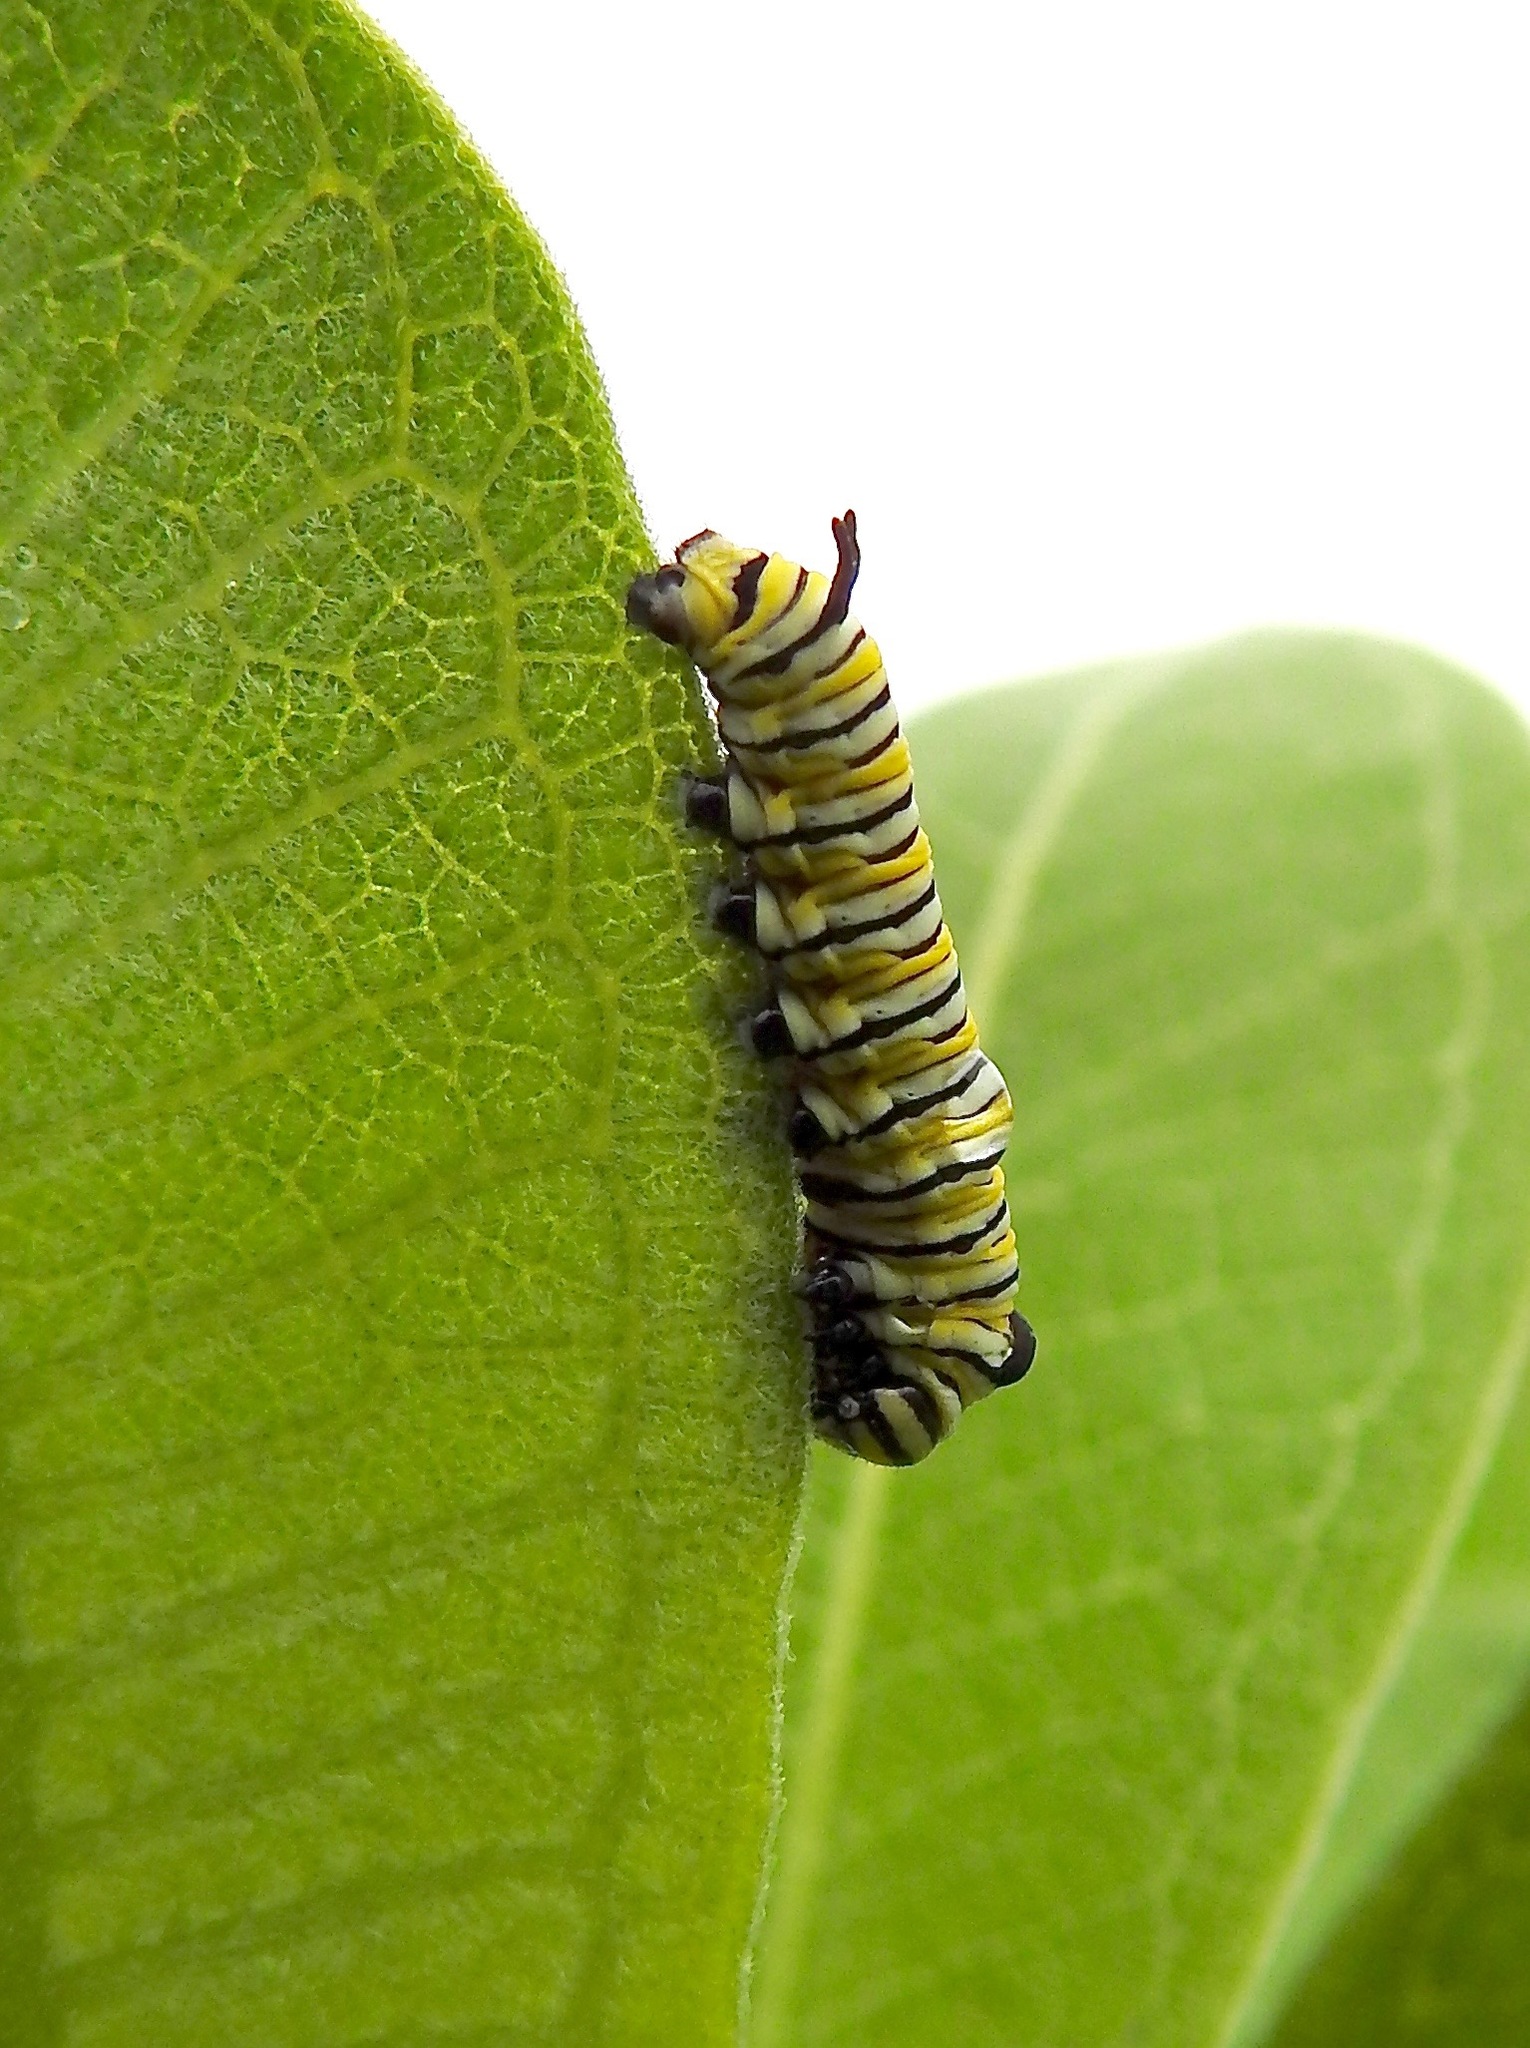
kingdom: Animalia
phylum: Arthropoda
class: Insecta
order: Lepidoptera
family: Nymphalidae
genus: Danaus
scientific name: Danaus plexippus
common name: Monarch
